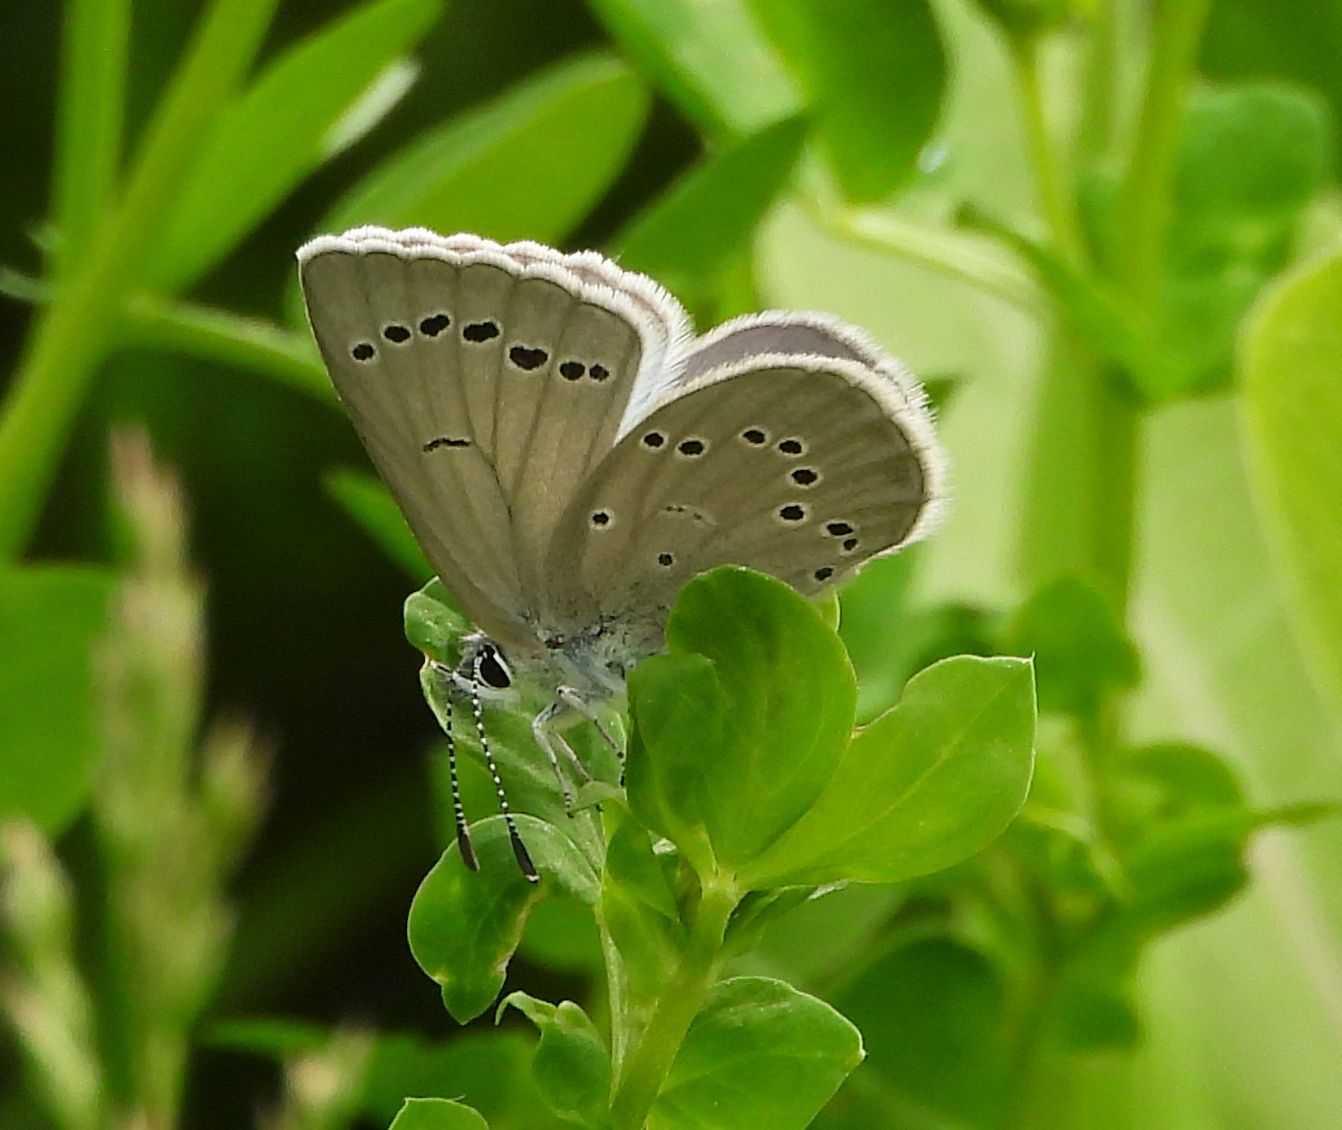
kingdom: Animalia
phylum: Arthropoda
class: Insecta
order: Lepidoptera
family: Lycaenidae
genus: Glaucopsyche
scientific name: Glaucopsyche lygdamus
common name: Silvery blue
